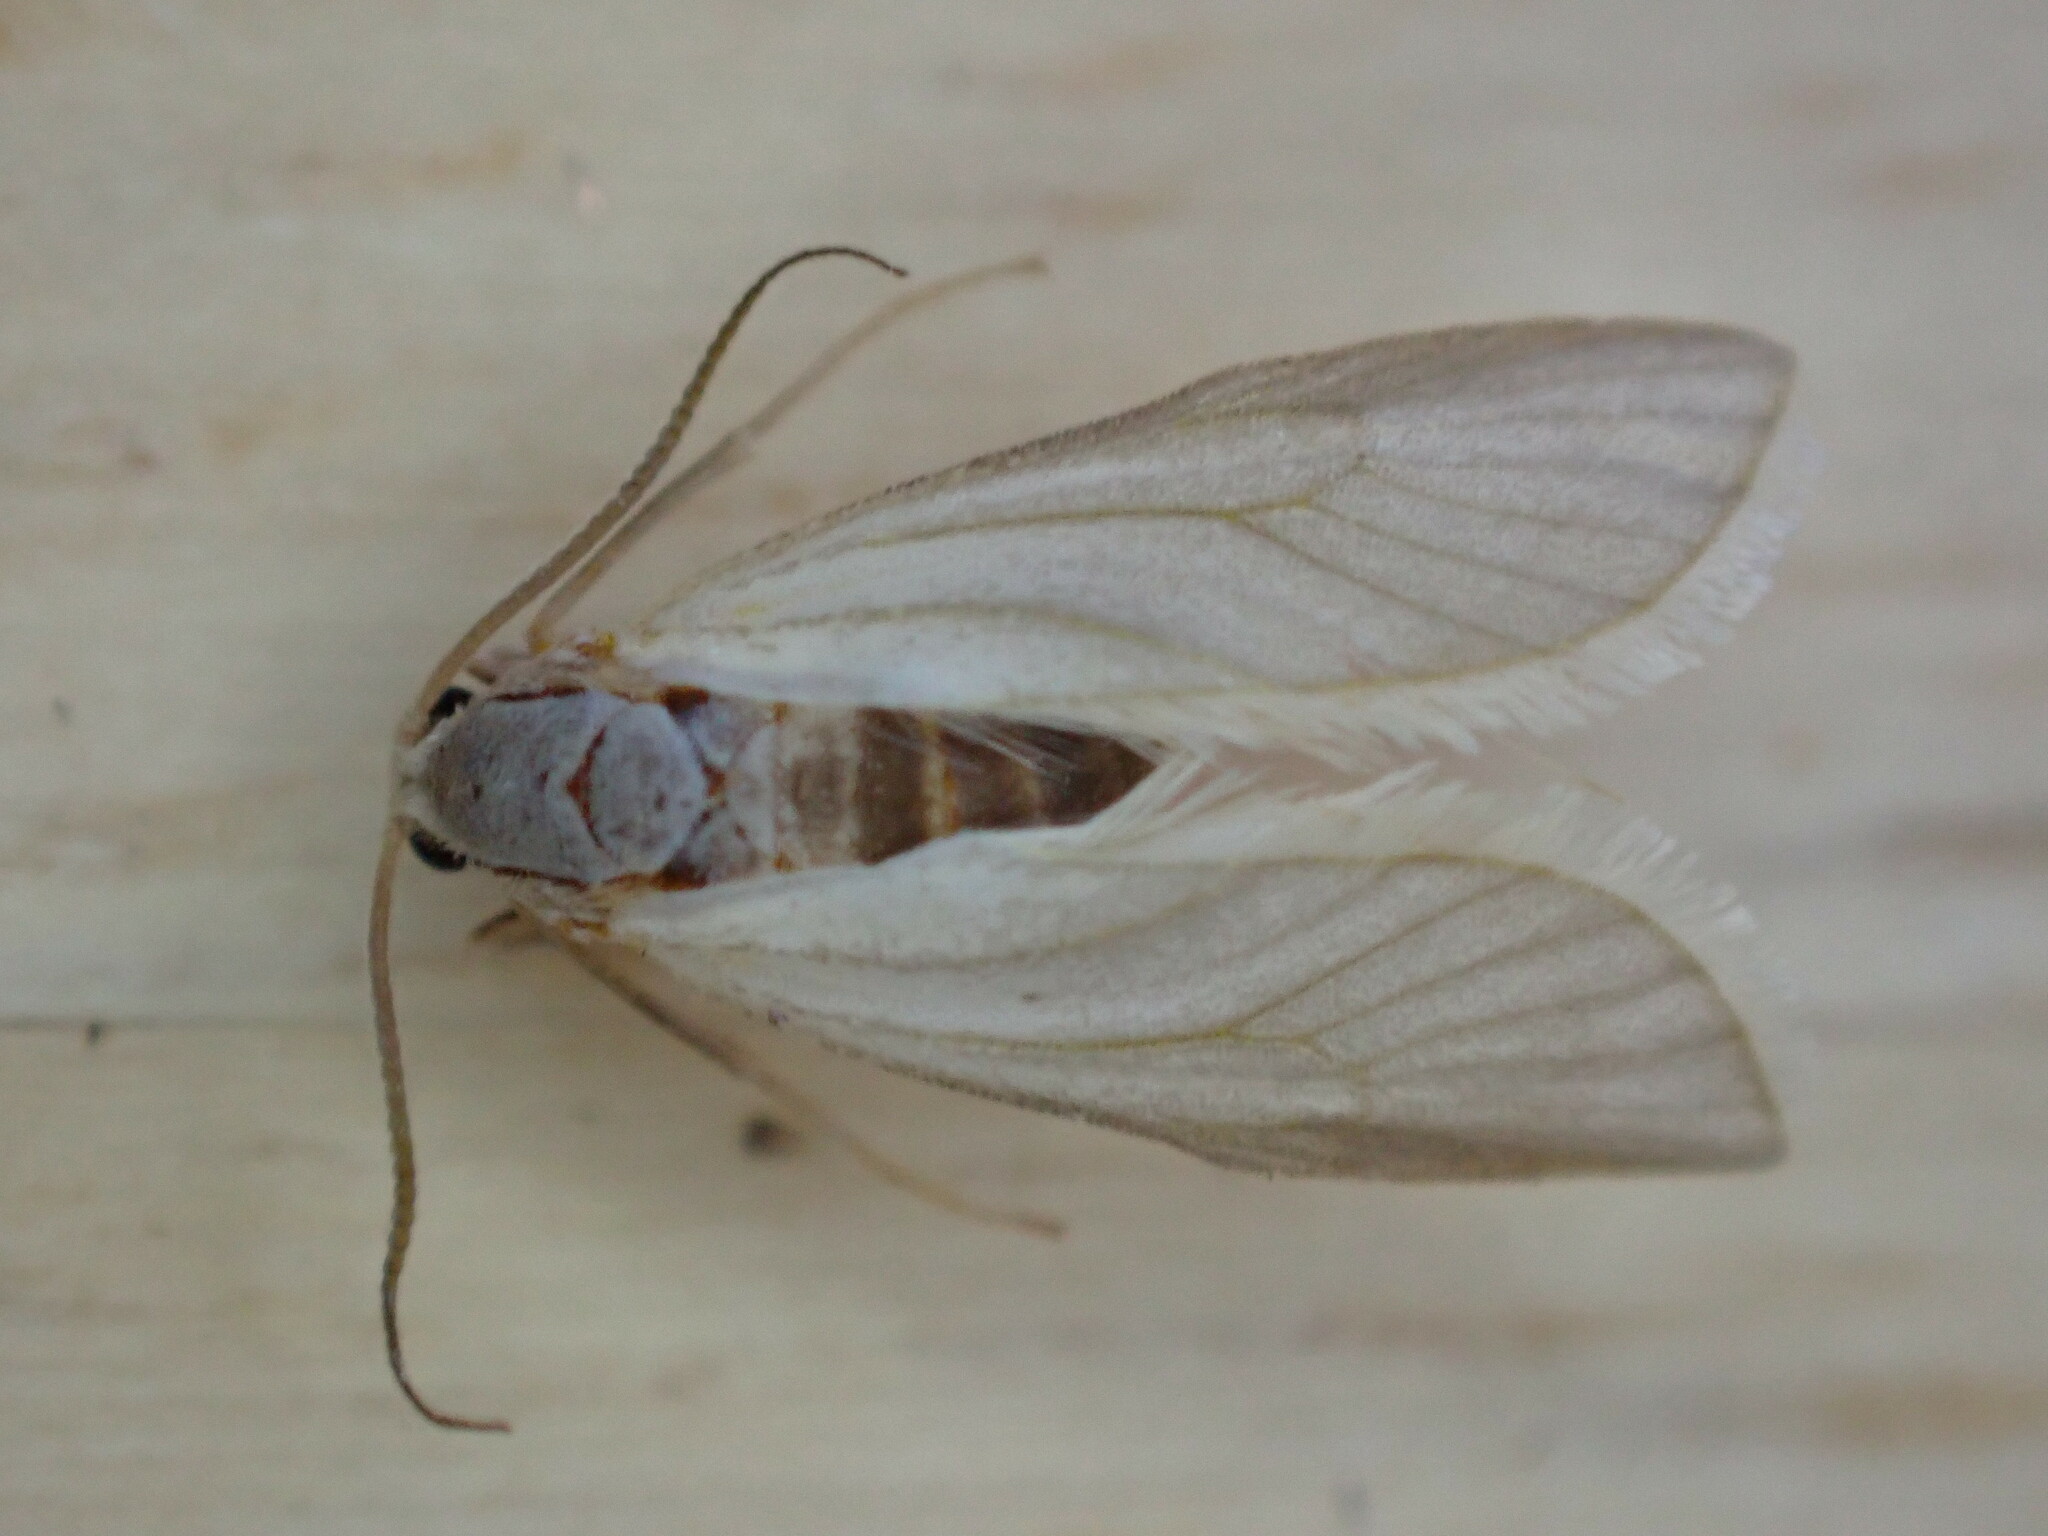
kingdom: Animalia
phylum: Arthropoda
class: Insecta
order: Lepidoptera
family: Crambidae
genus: Acentria
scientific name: Acentria ephemerella
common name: European water moth
